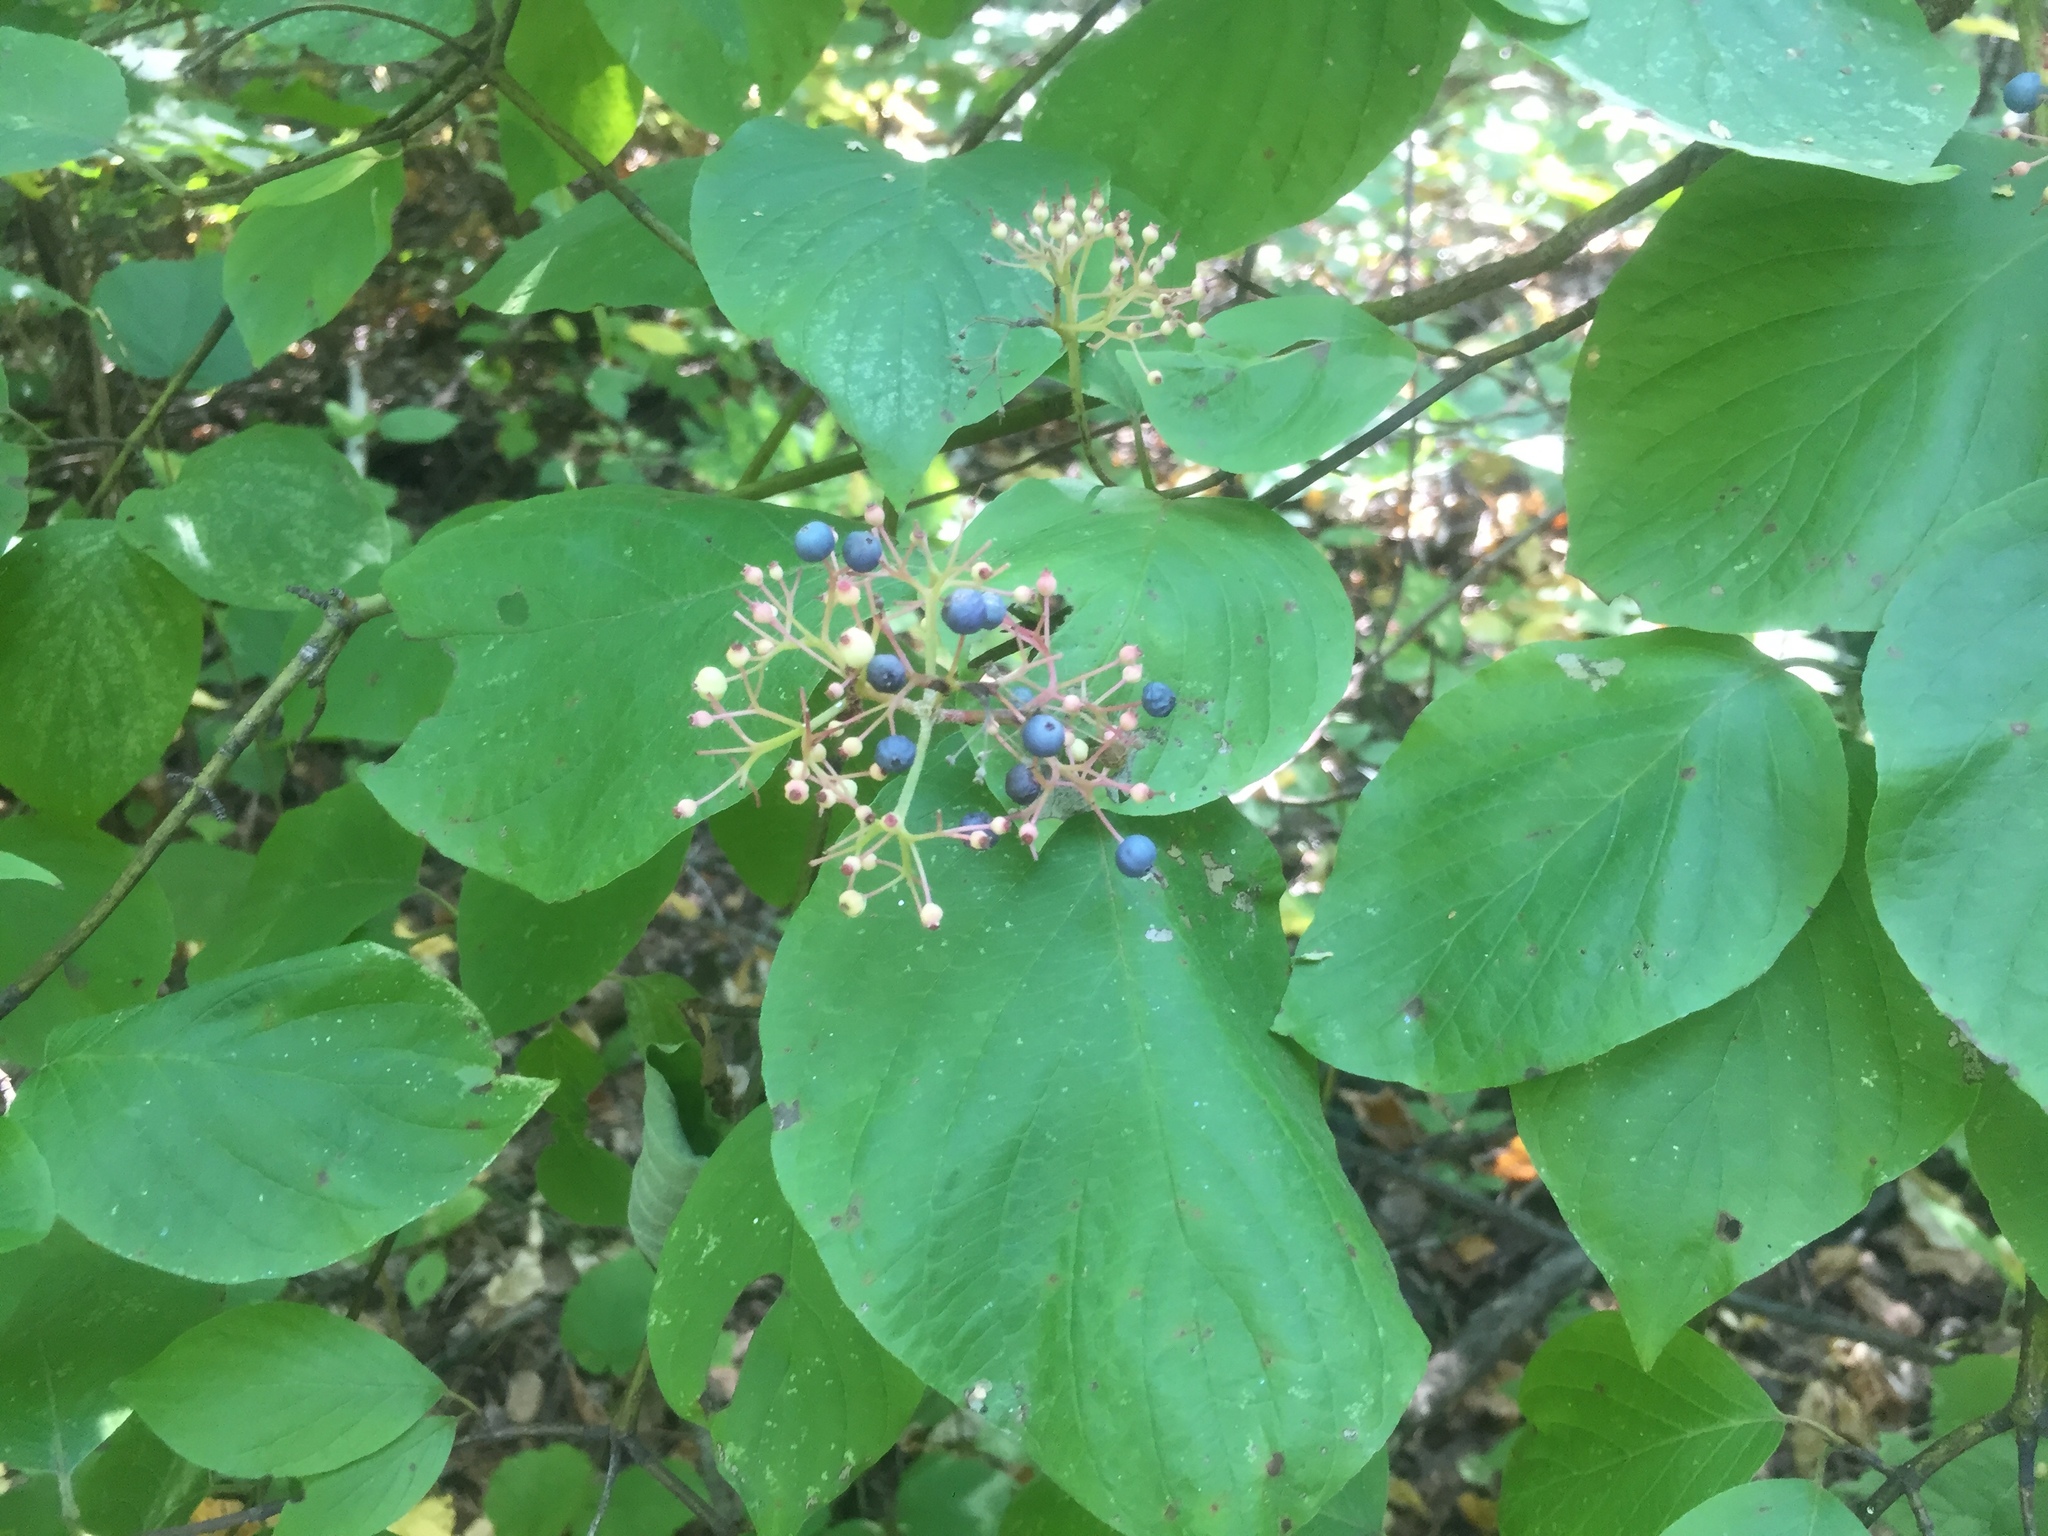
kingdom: Plantae
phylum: Tracheophyta
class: Magnoliopsida
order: Cornales
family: Cornaceae
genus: Cornus
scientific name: Cornus rugosa
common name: Round-leaf dogwood
